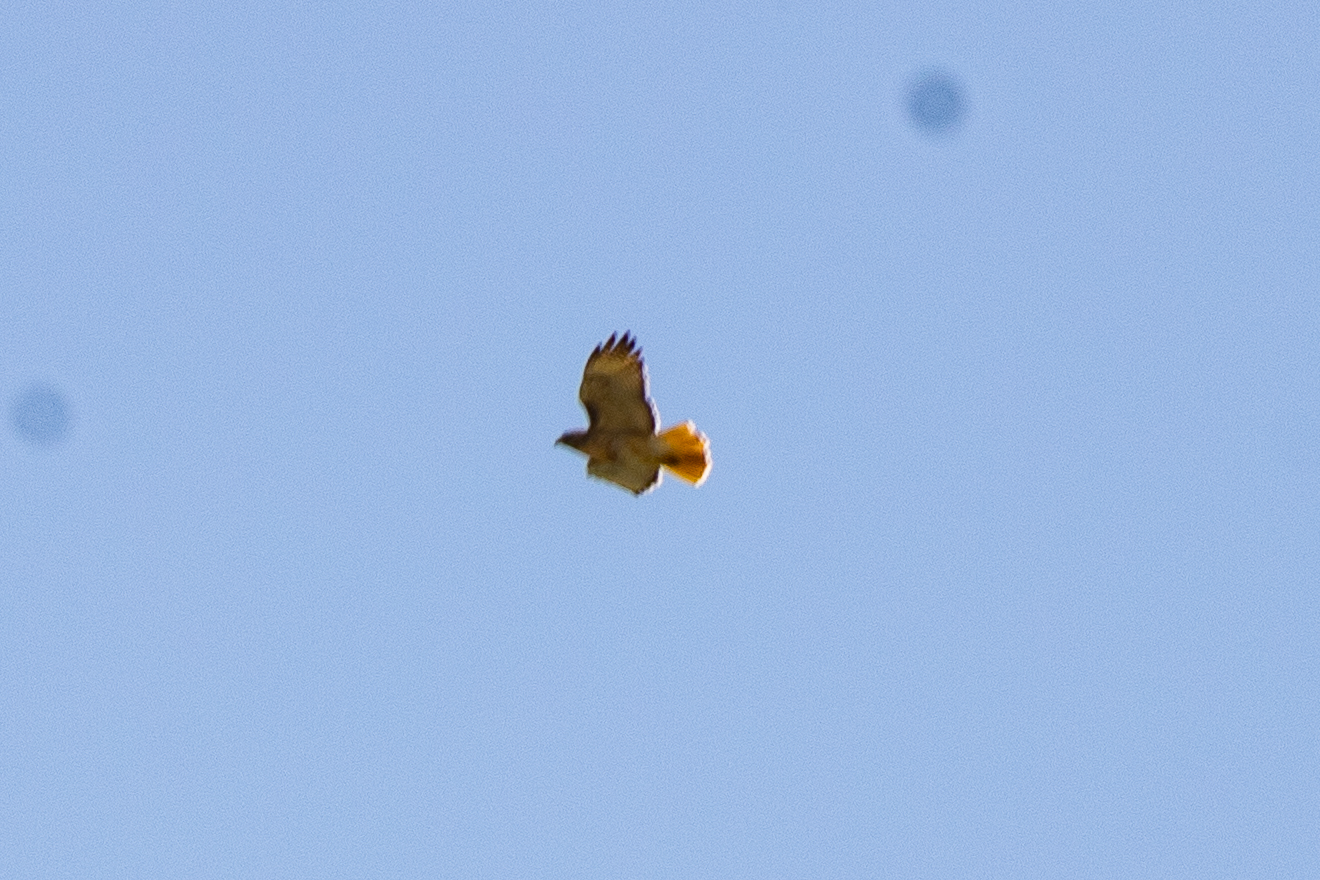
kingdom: Animalia
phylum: Chordata
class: Aves
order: Accipitriformes
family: Accipitridae
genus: Buteo
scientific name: Buteo jamaicensis
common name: Red-tailed hawk
